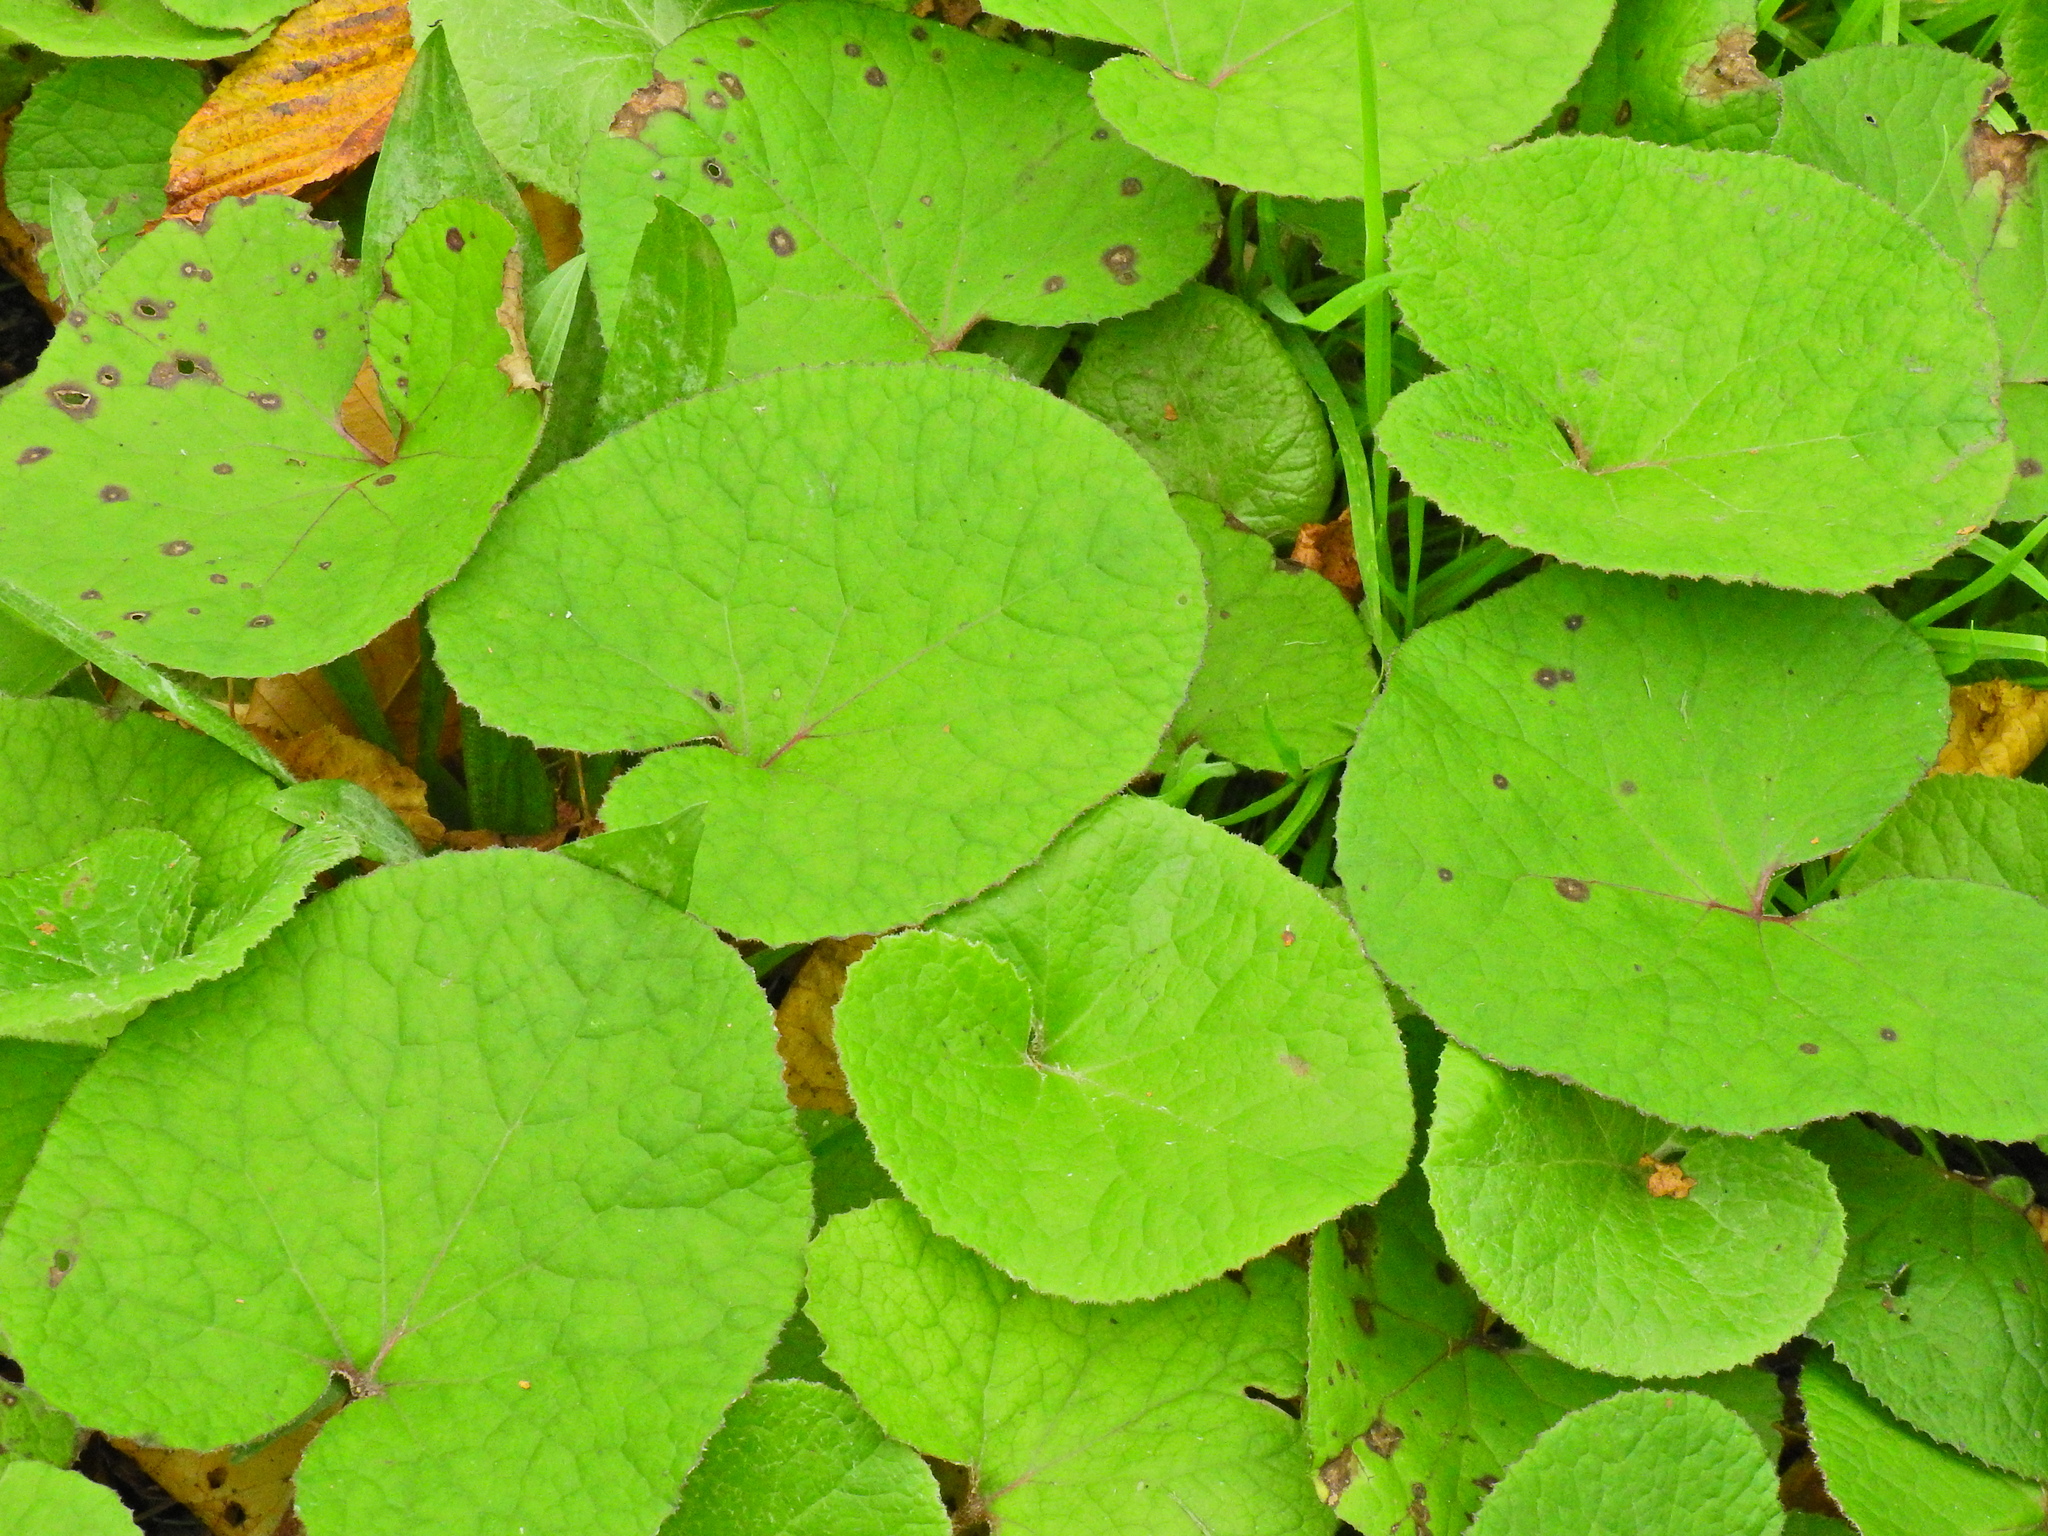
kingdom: Plantae
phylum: Tracheophyta
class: Magnoliopsida
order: Asterales
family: Asteraceae
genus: Petasites
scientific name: Petasites pyrenaicus
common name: Winter heliotrope
